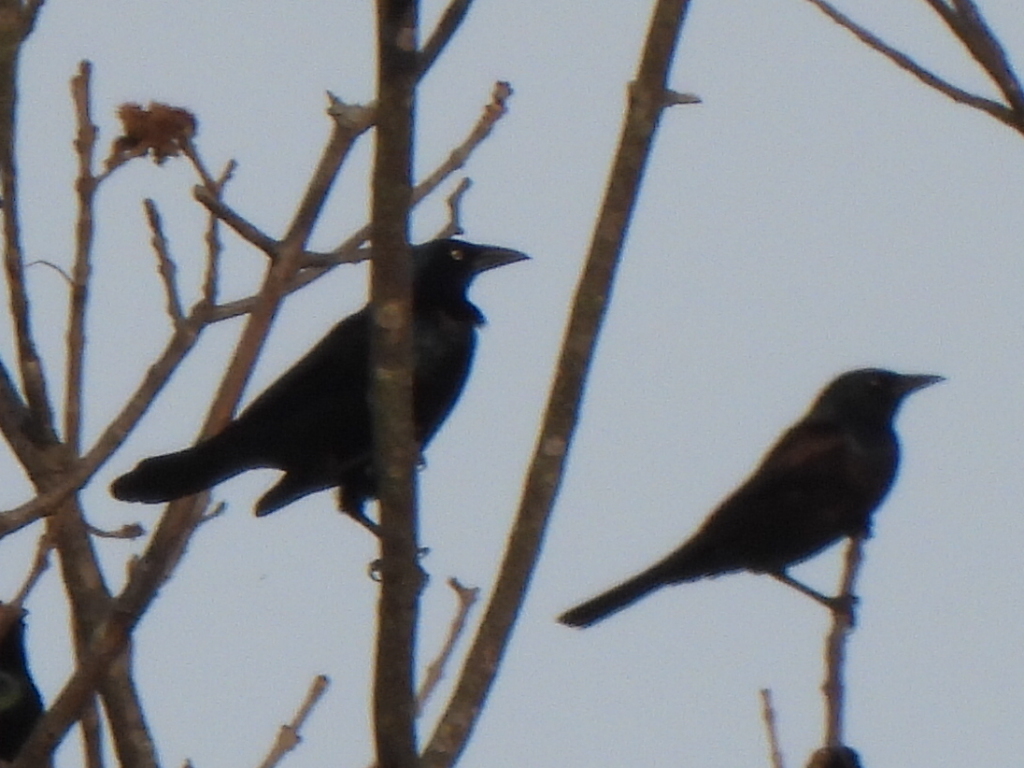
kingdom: Animalia
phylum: Chordata
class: Aves
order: Passeriformes
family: Icteridae
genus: Quiscalus
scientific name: Quiscalus quiscula
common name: Common grackle
